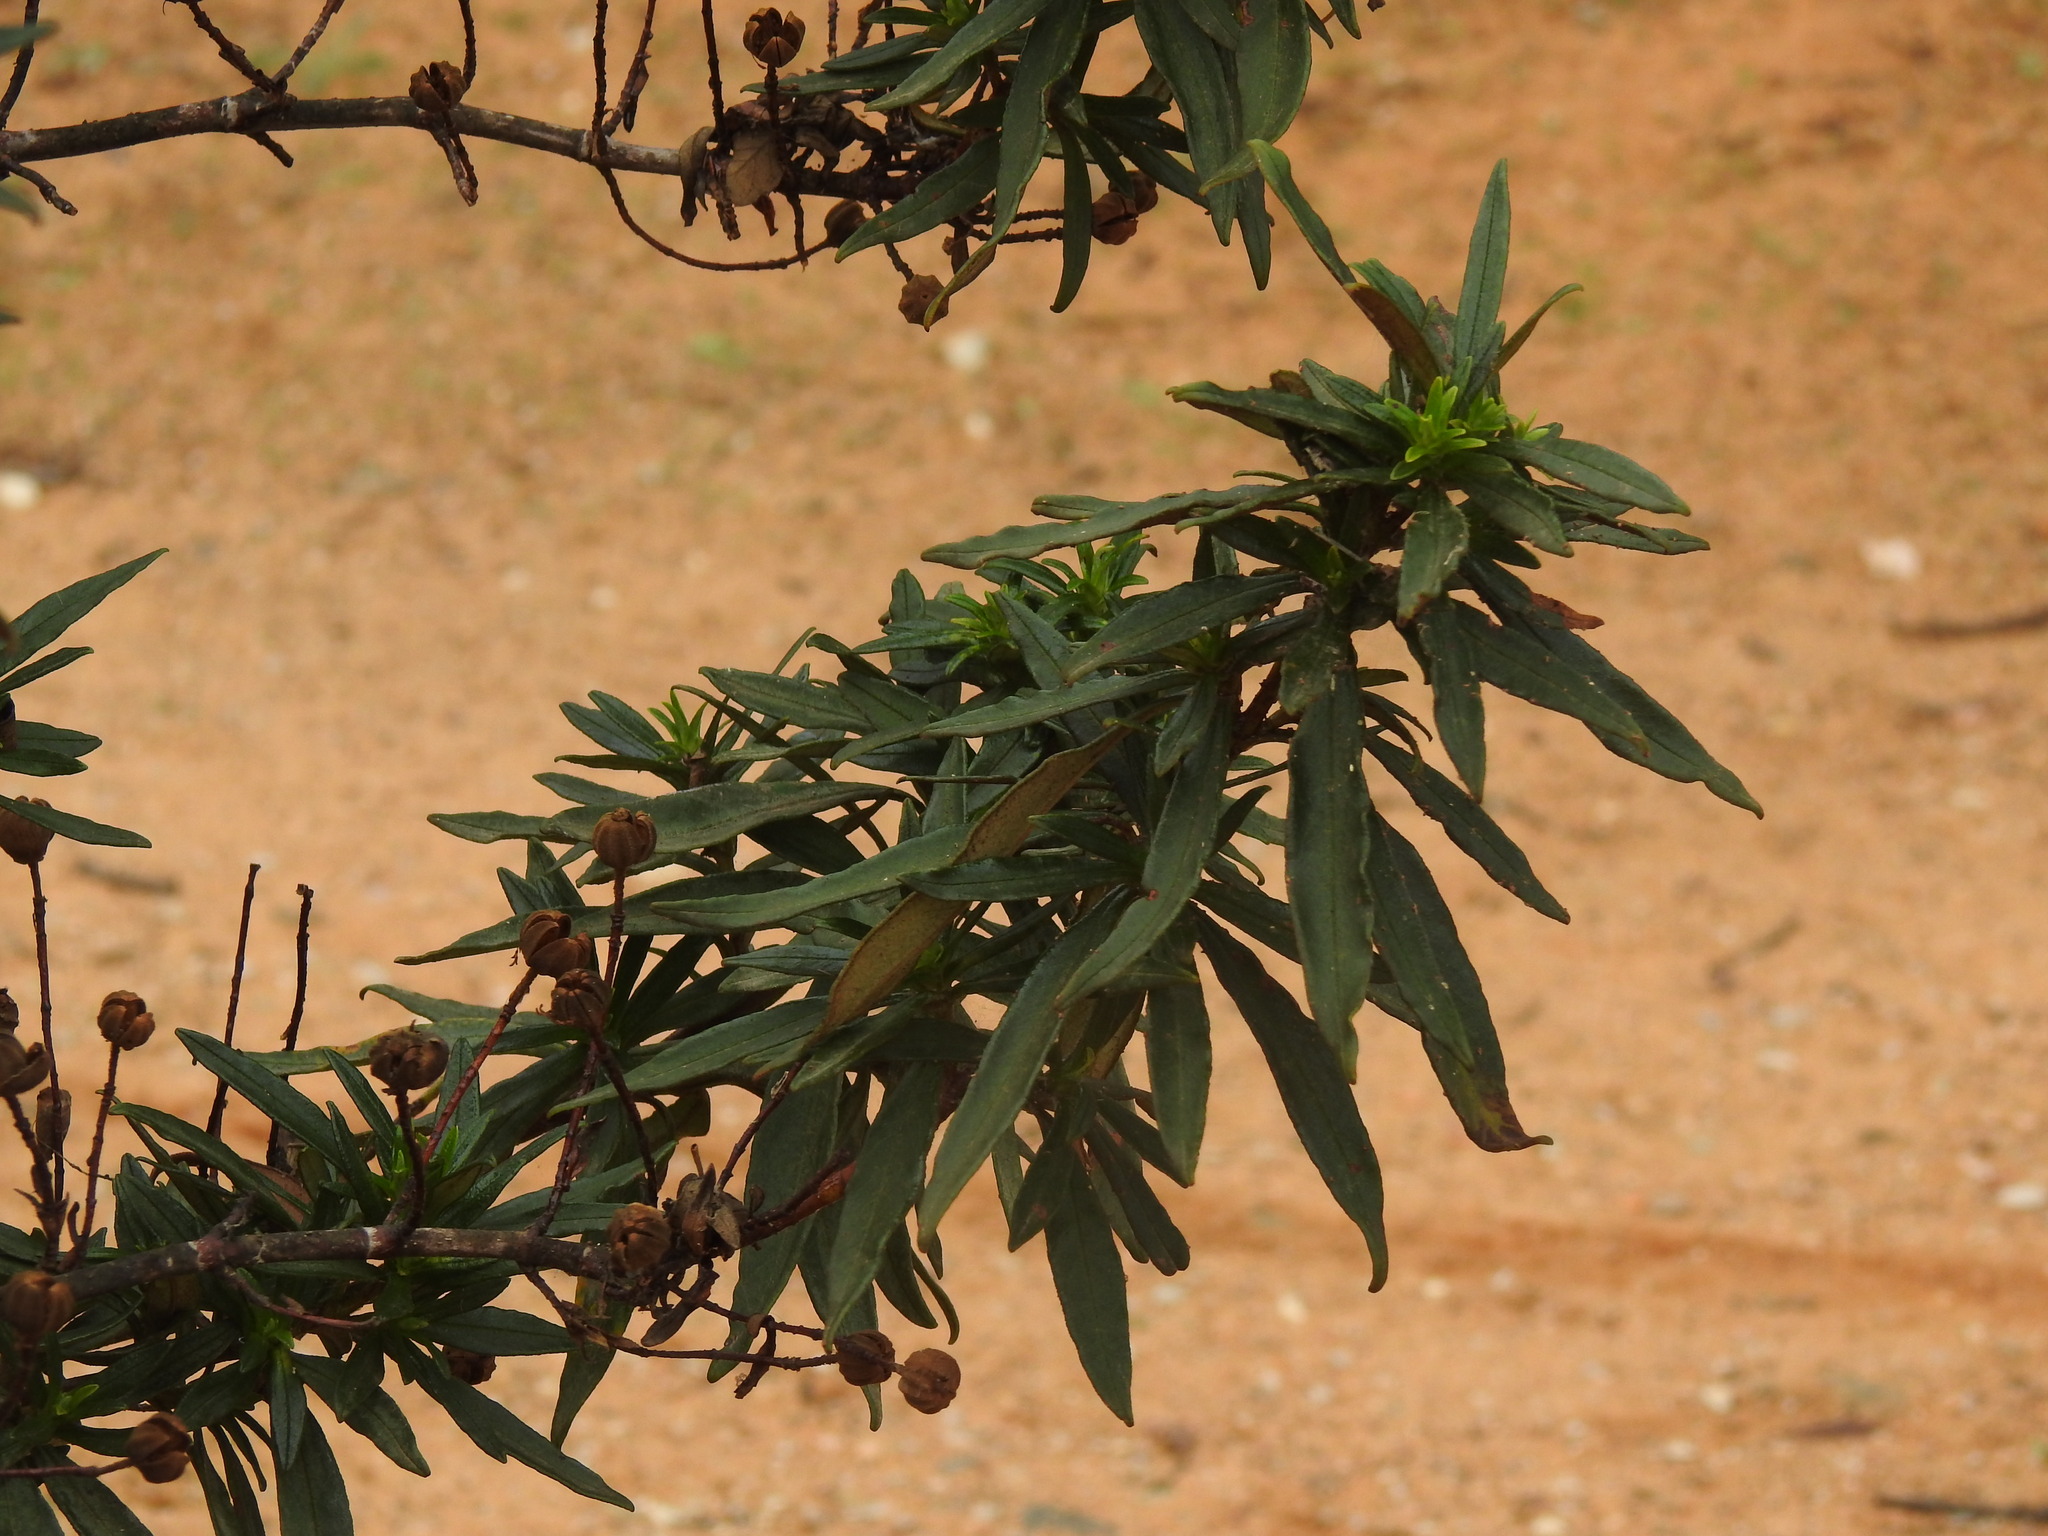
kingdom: Plantae
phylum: Tracheophyta
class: Magnoliopsida
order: Malvales
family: Cistaceae
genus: Cistus
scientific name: Cistus ladanifer
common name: Common gum cistus
